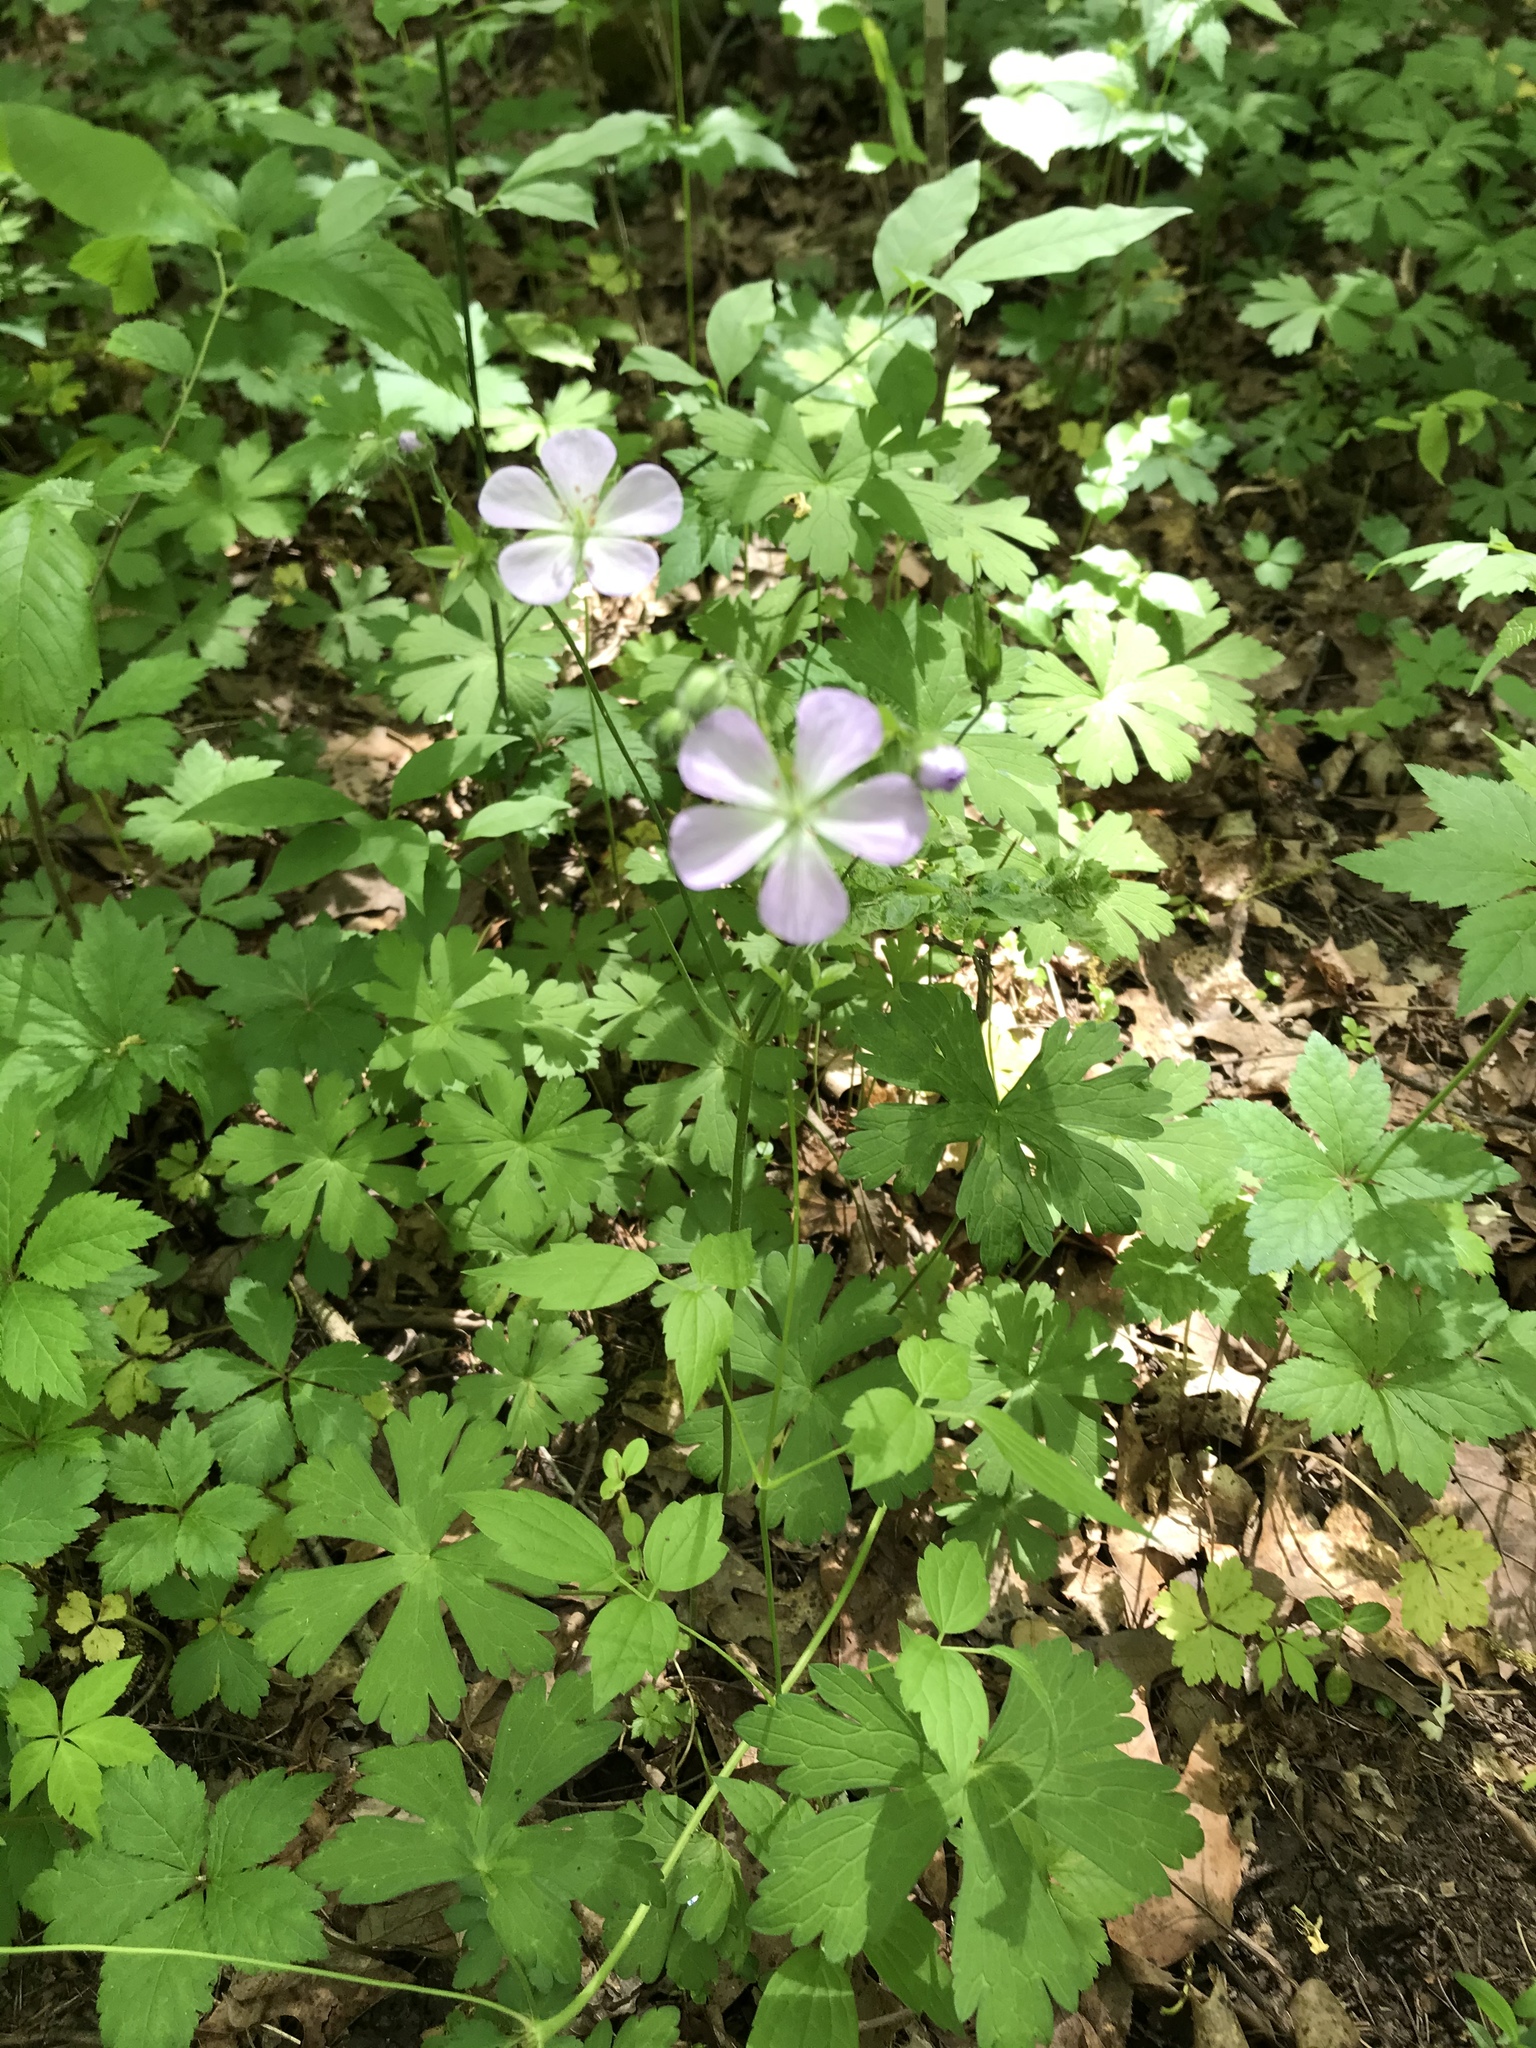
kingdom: Plantae
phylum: Tracheophyta
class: Magnoliopsida
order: Geraniales
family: Geraniaceae
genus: Geranium
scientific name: Geranium maculatum
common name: Spotted geranium
